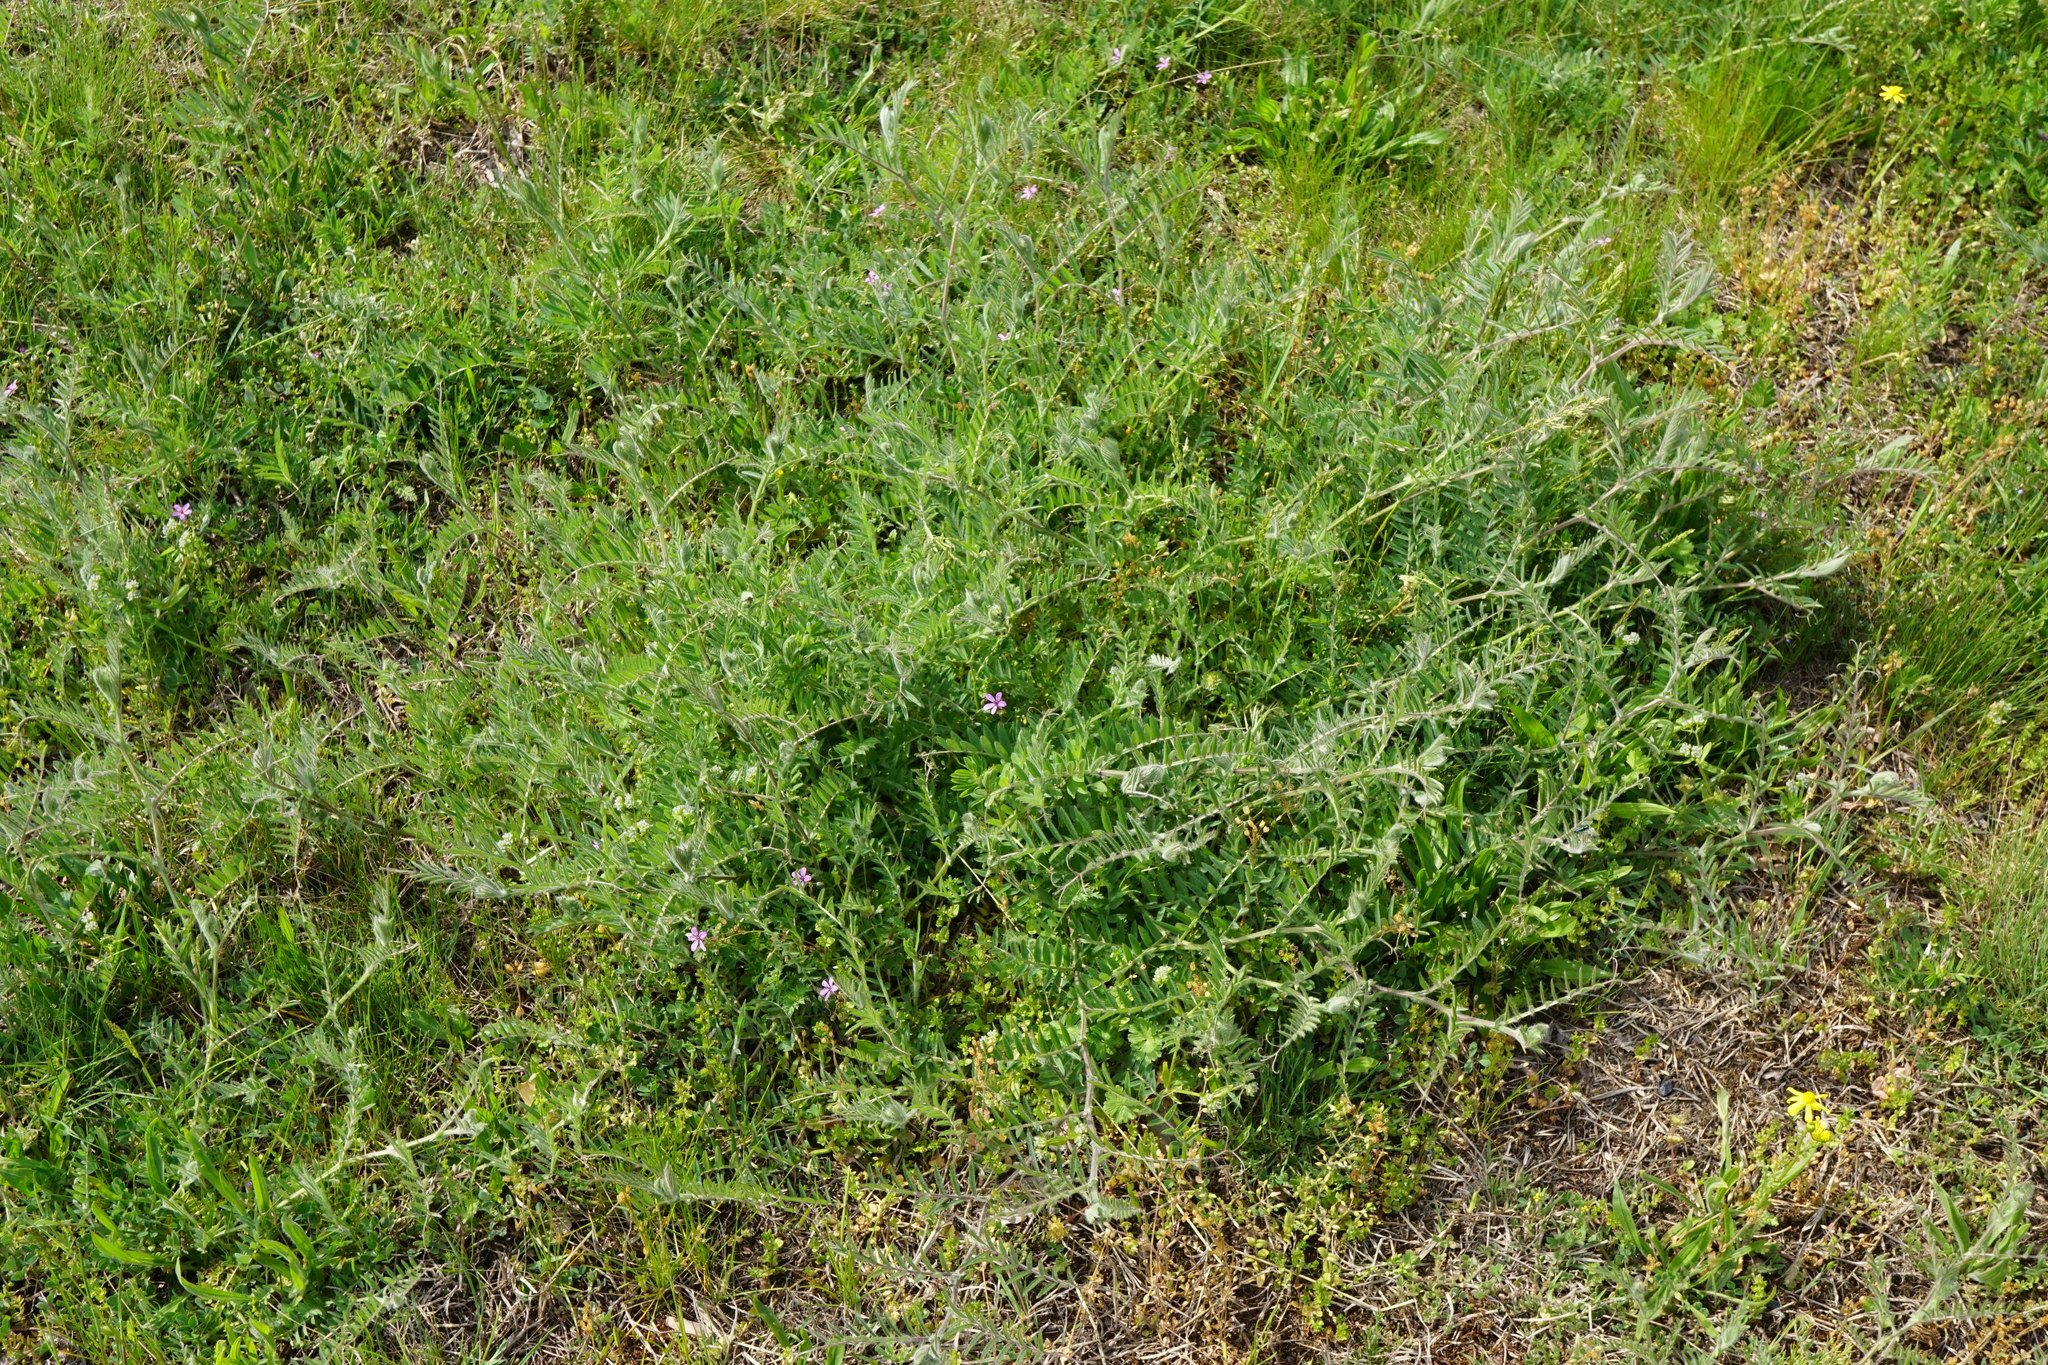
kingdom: Plantae
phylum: Tracheophyta
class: Magnoliopsida
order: Fabales
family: Fabaceae
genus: Vicia
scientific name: Vicia villosa
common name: Fodder vetch
